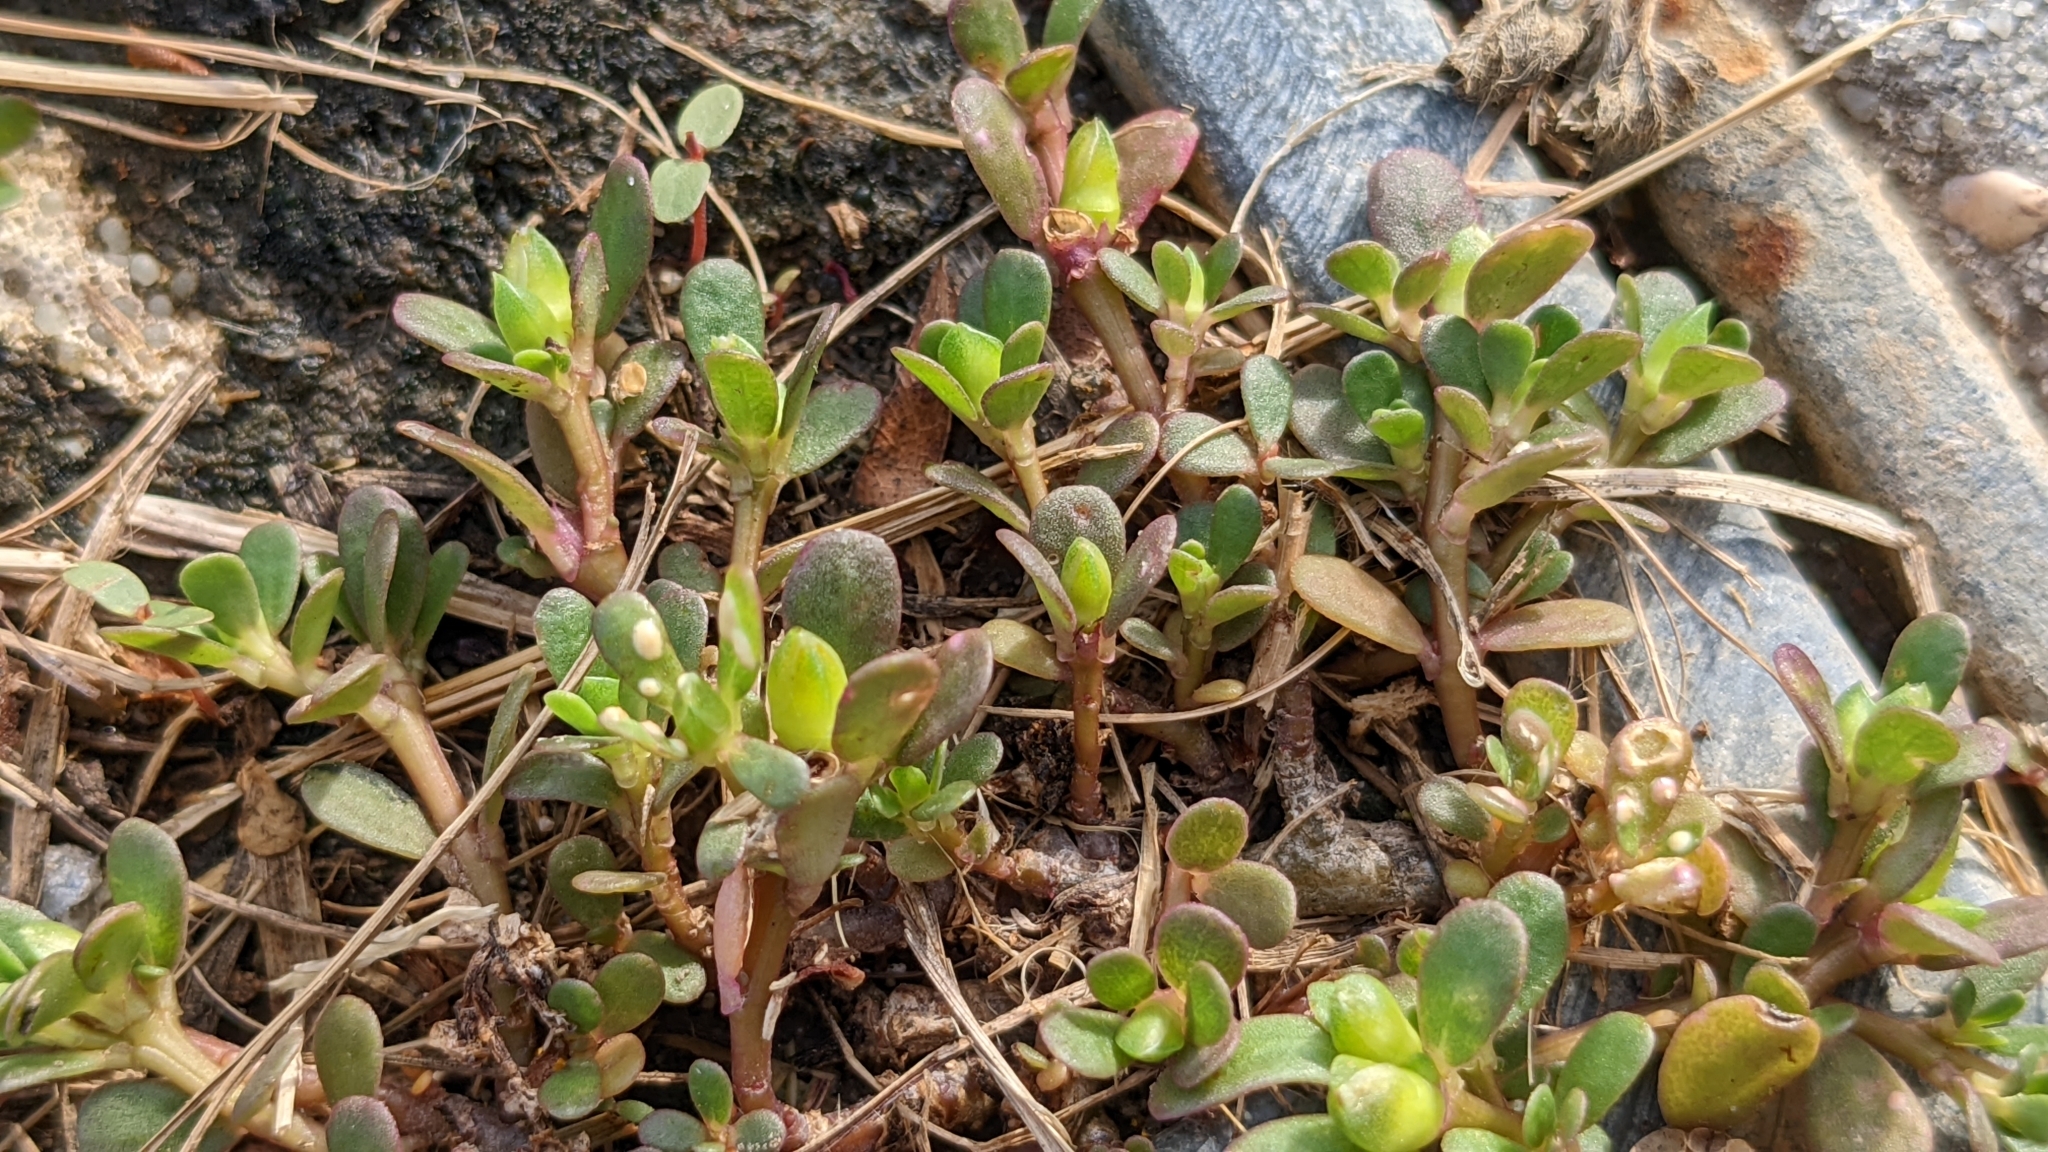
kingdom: Plantae
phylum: Tracheophyta
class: Magnoliopsida
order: Caryophyllales
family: Portulacaceae
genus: Portulaca
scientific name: Portulaca oleracea
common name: Common purslane
